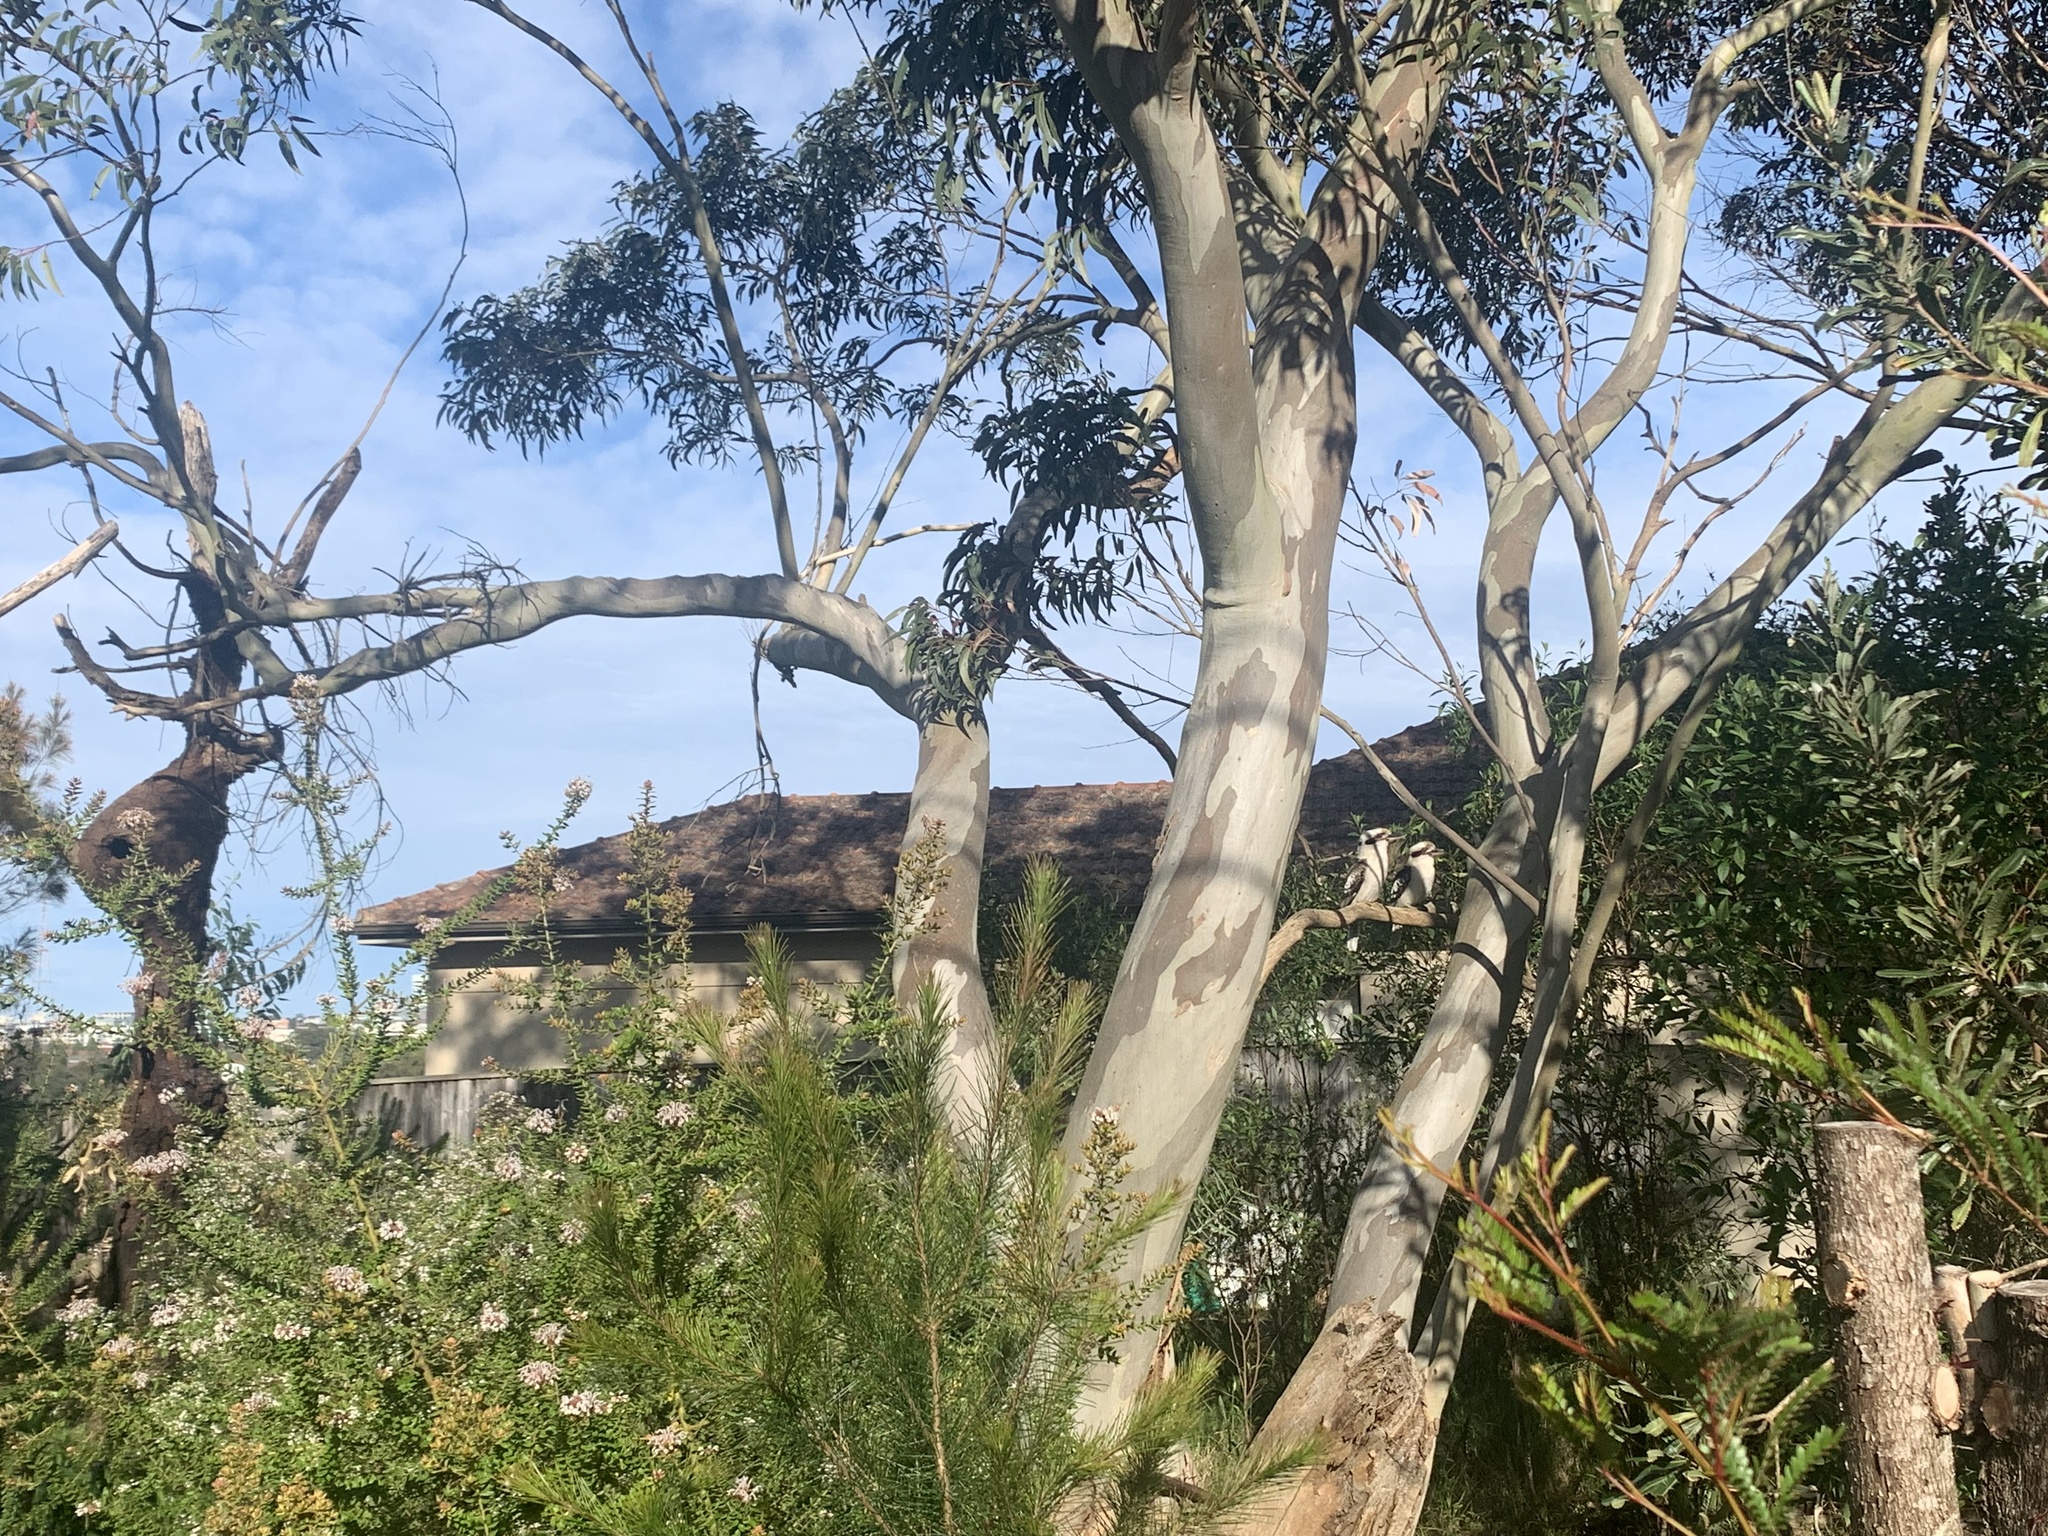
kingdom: Animalia
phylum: Chordata
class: Aves
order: Coraciiformes
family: Alcedinidae
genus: Dacelo
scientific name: Dacelo novaeguineae
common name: Laughing kookaburra
